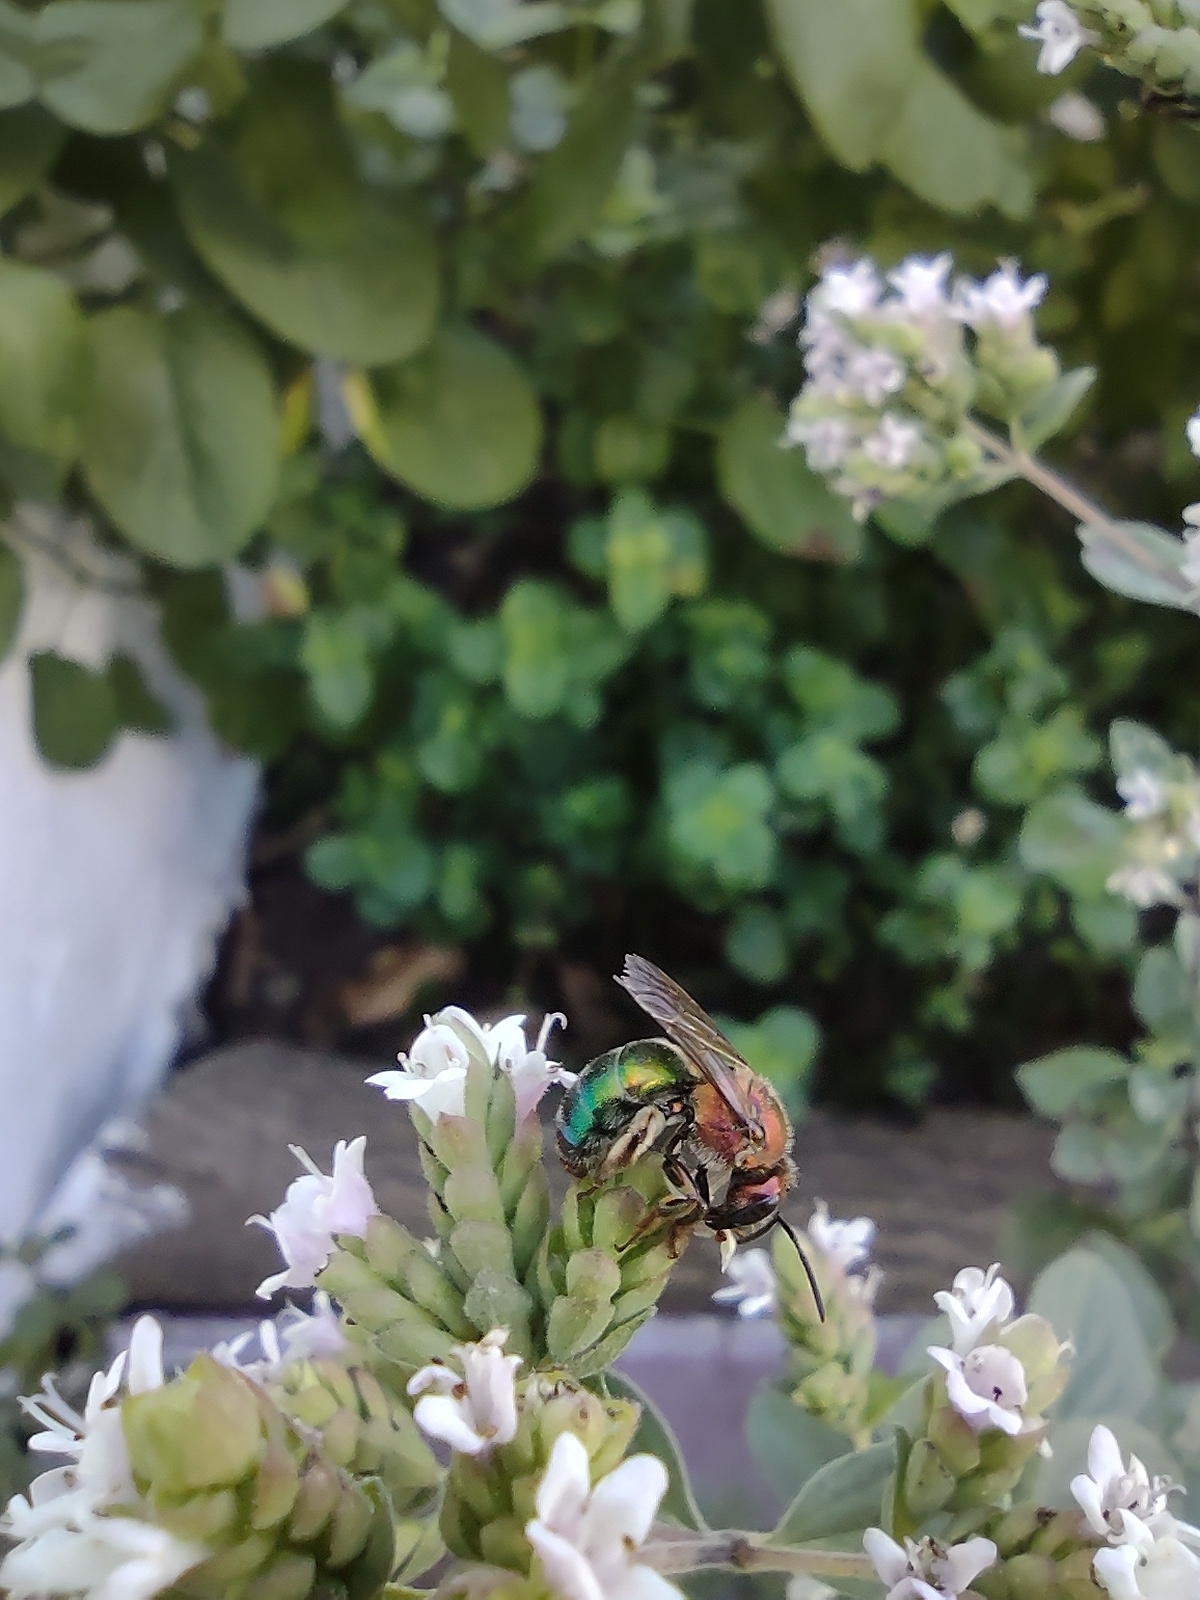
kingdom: Animalia
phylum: Arthropoda
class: Insecta
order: Hymenoptera
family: Halictidae
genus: Augochloropsis
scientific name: Augochloropsis tupacamaru
